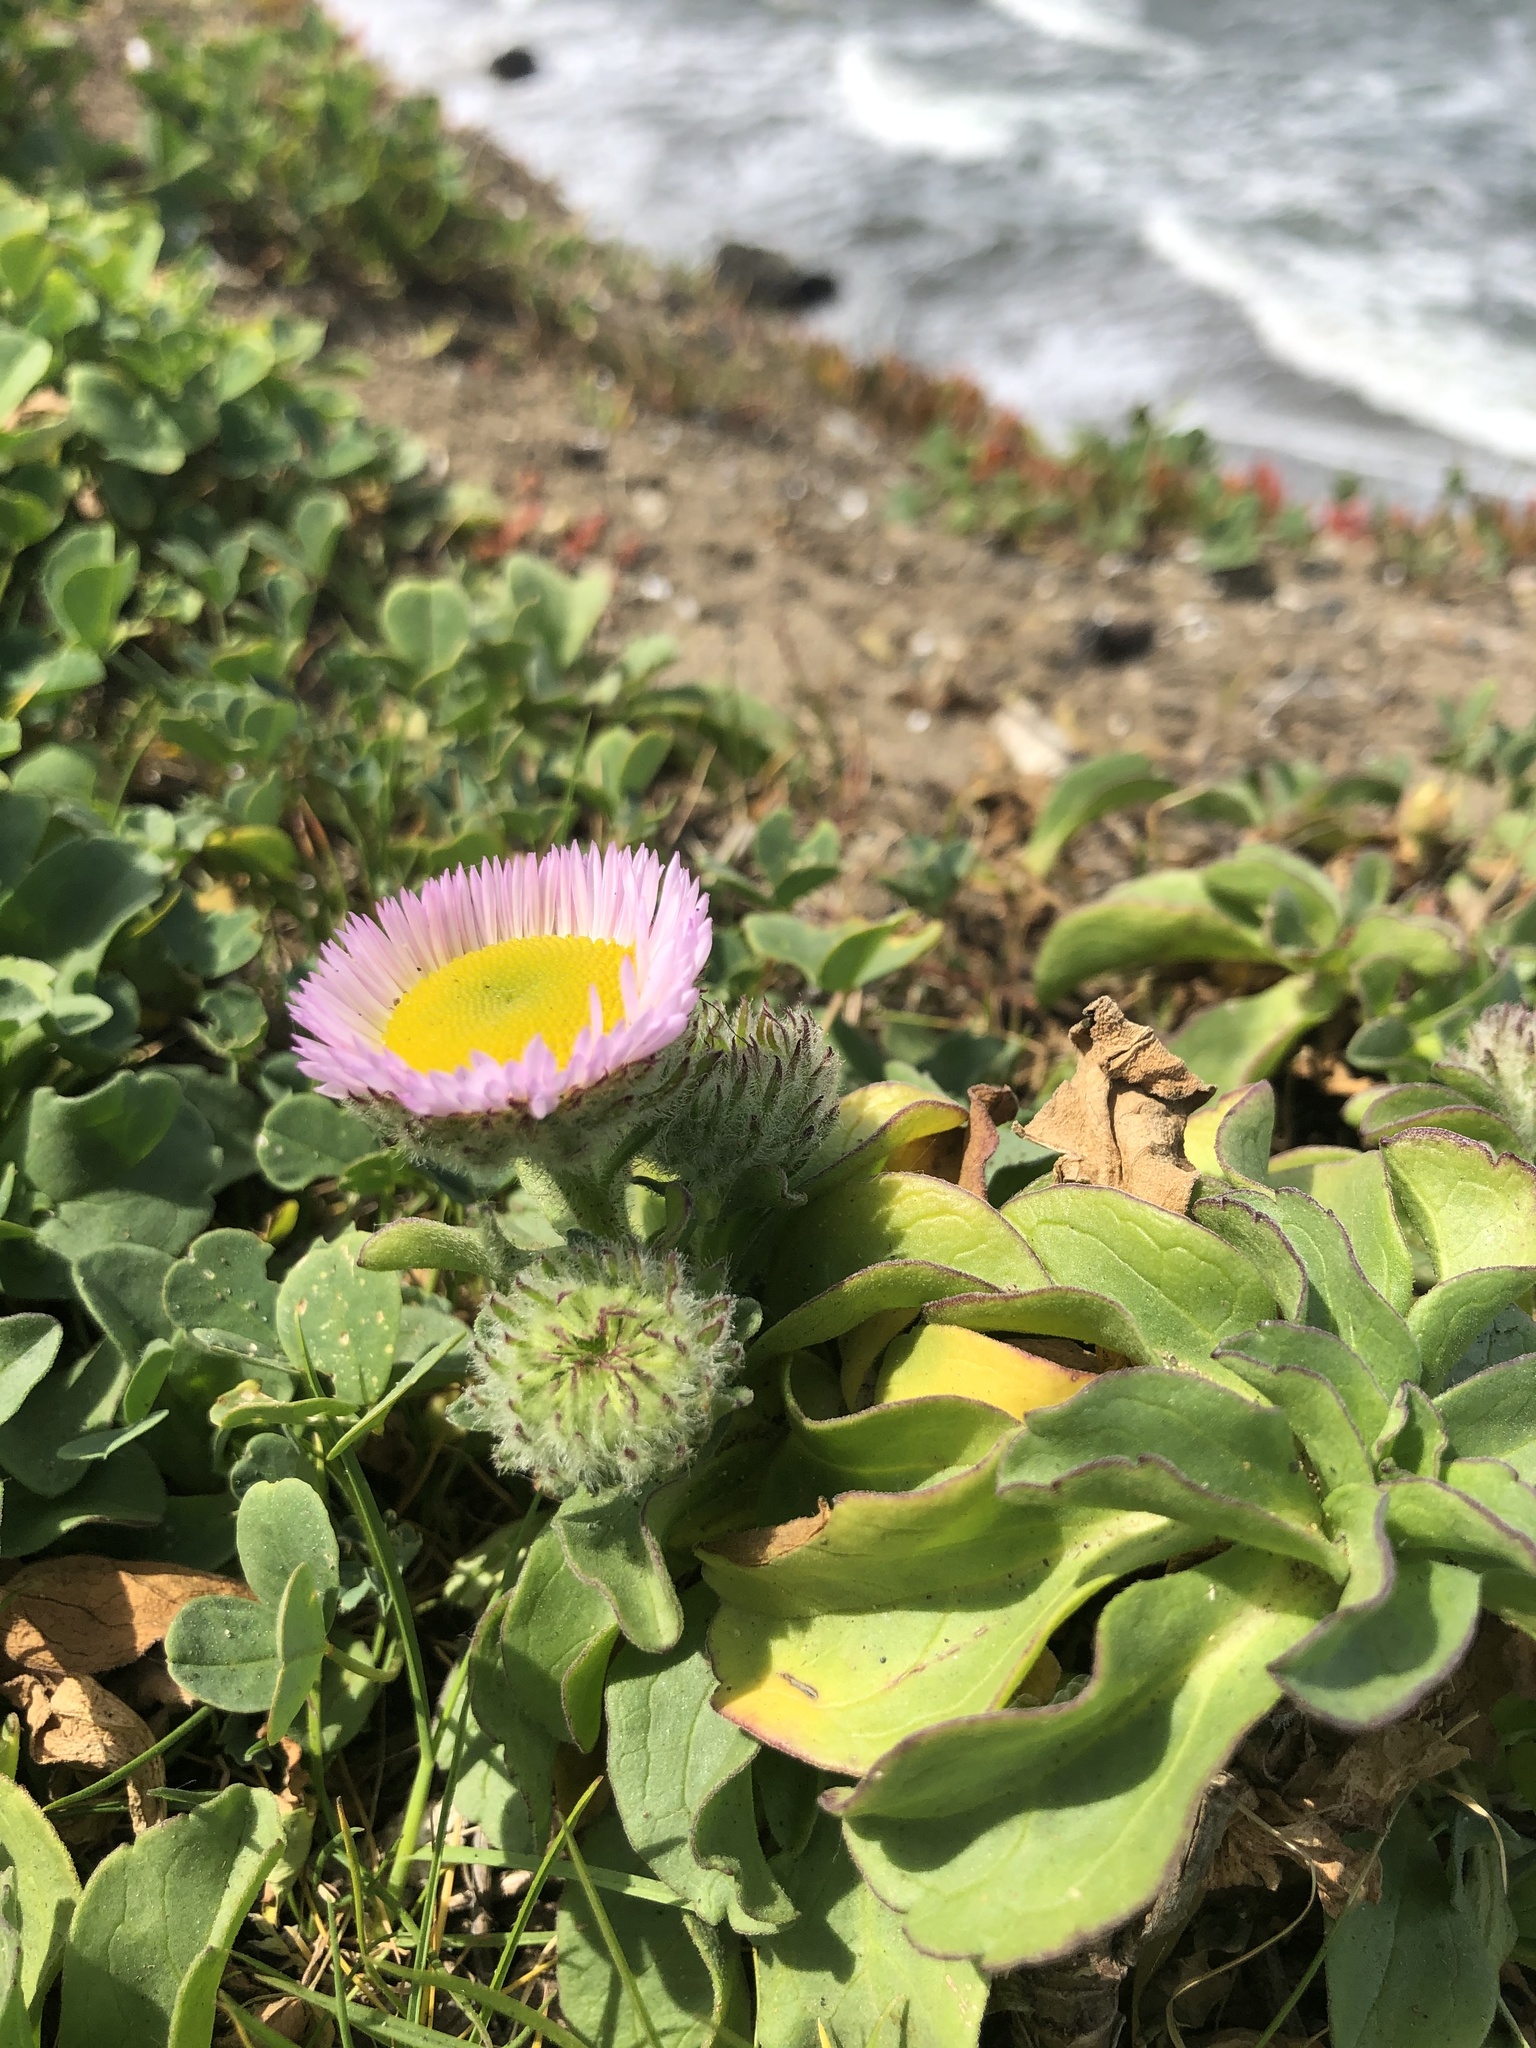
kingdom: Plantae
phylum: Tracheophyta
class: Magnoliopsida
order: Asterales
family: Asteraceae
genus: Erigeron
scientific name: Erigeron glaucus
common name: Seaside daisy
